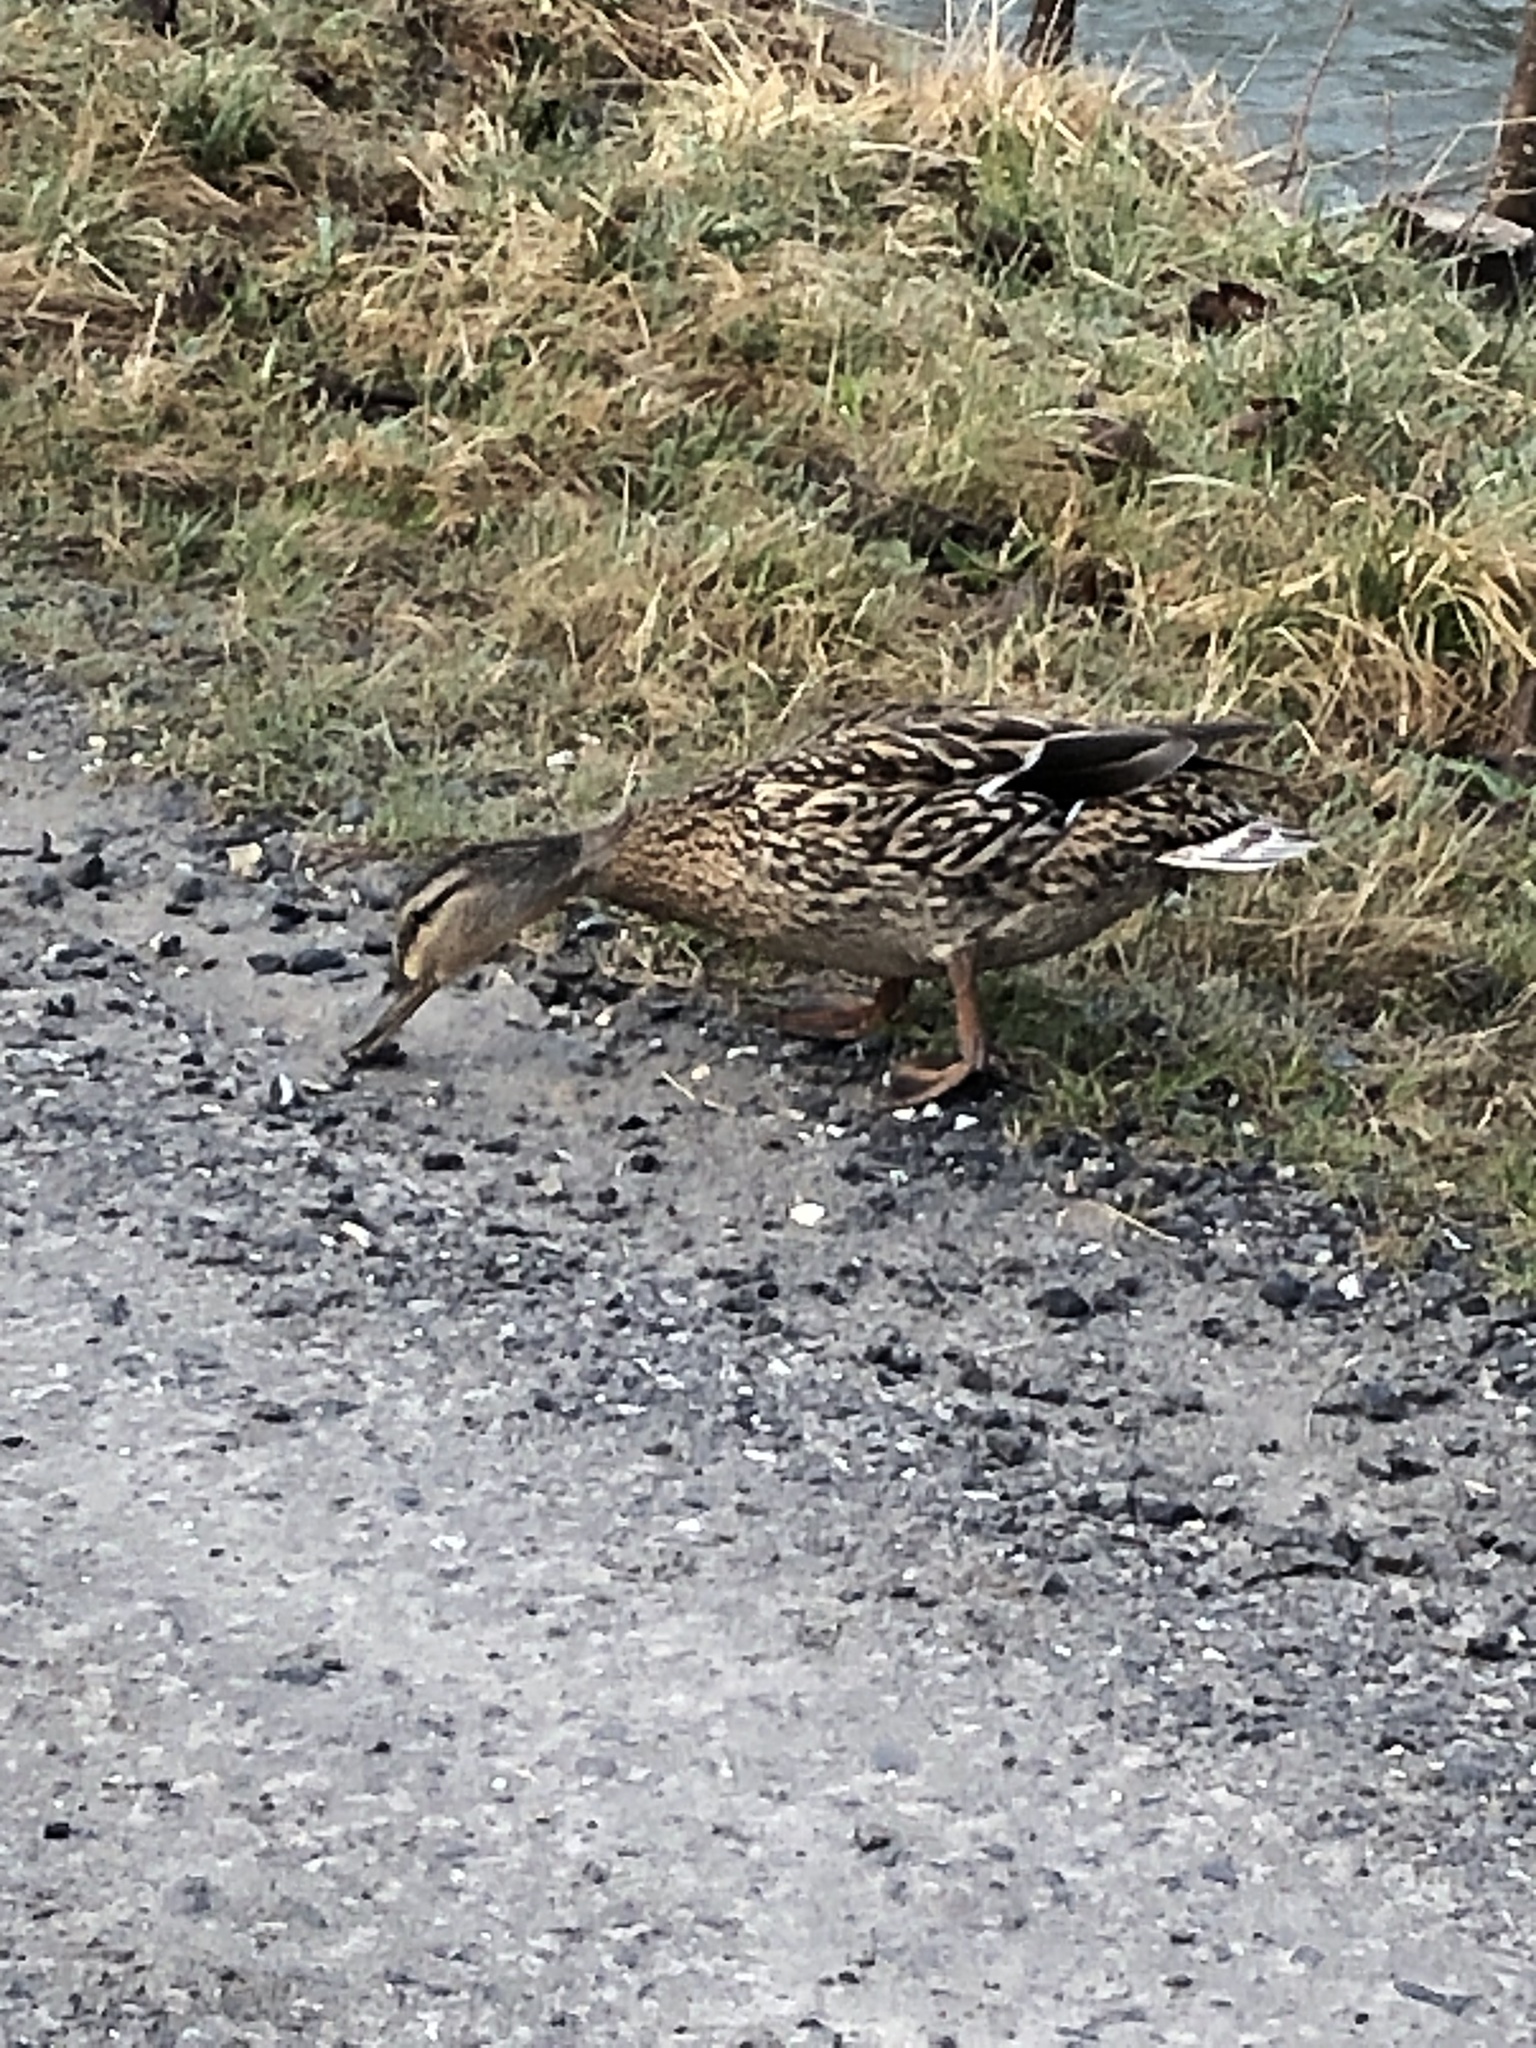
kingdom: Animalia
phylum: Chordata
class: Aves
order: Anseriformes
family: Anatidae
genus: Anas
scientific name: Anas platyrhynchos
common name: Mallard
